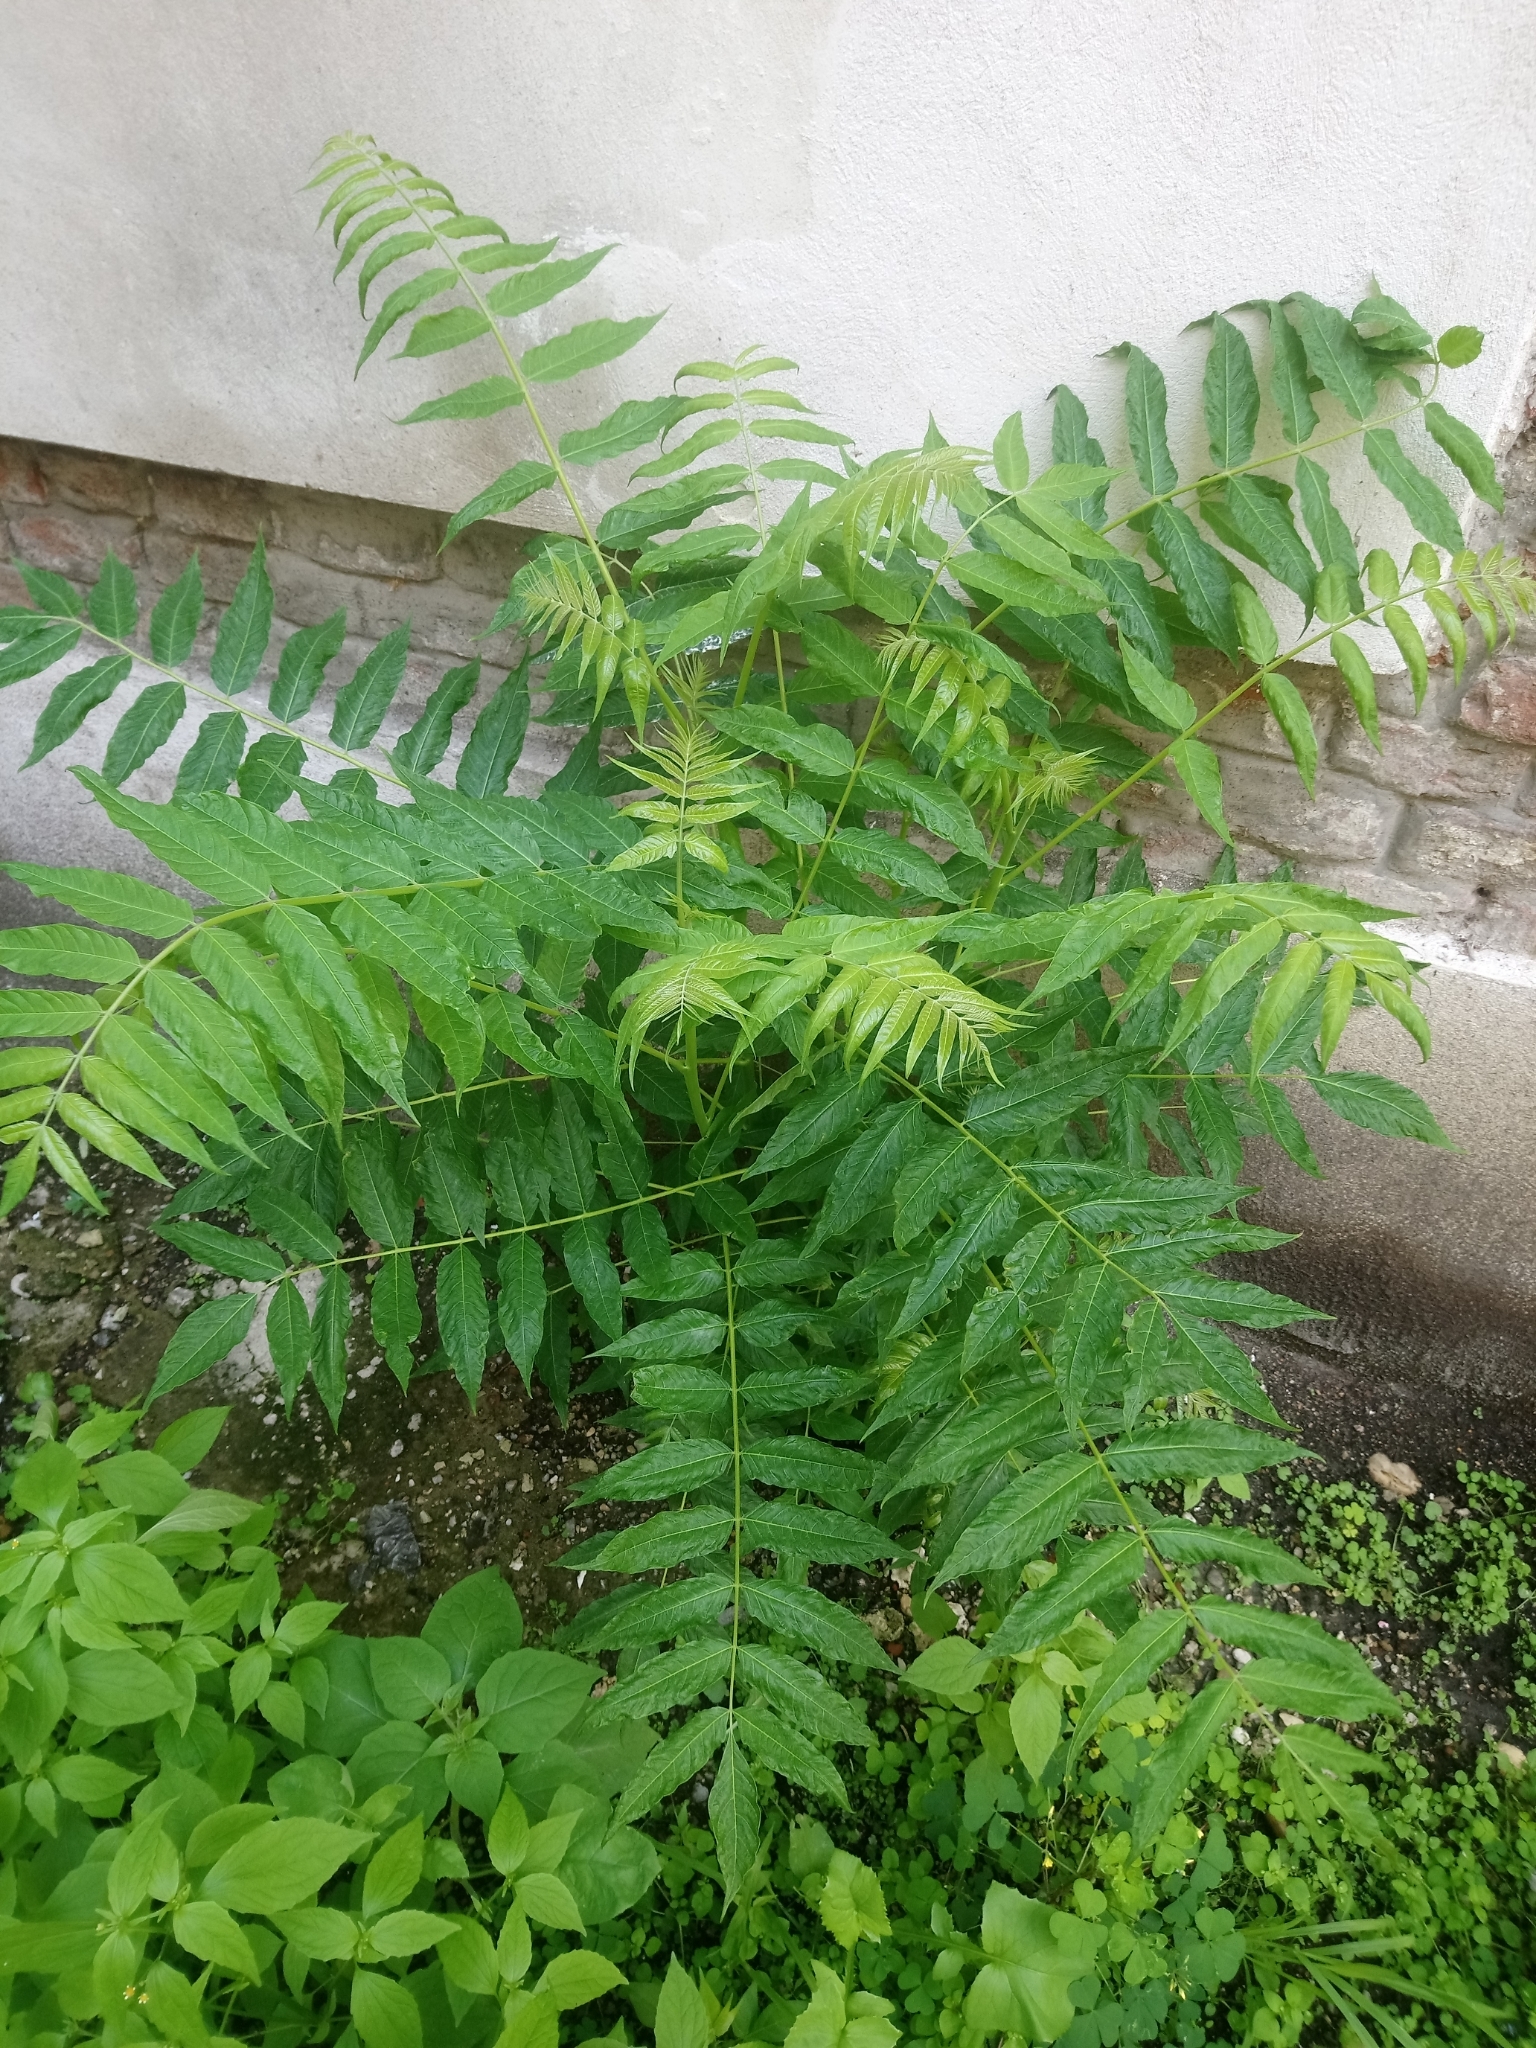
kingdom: Plantae
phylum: Tracheophyta
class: Magnoliopsida
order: Sapindales
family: Simaroubaceae
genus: Ailanthus
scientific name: Ailanthus altissima
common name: Tree-of-heaven
